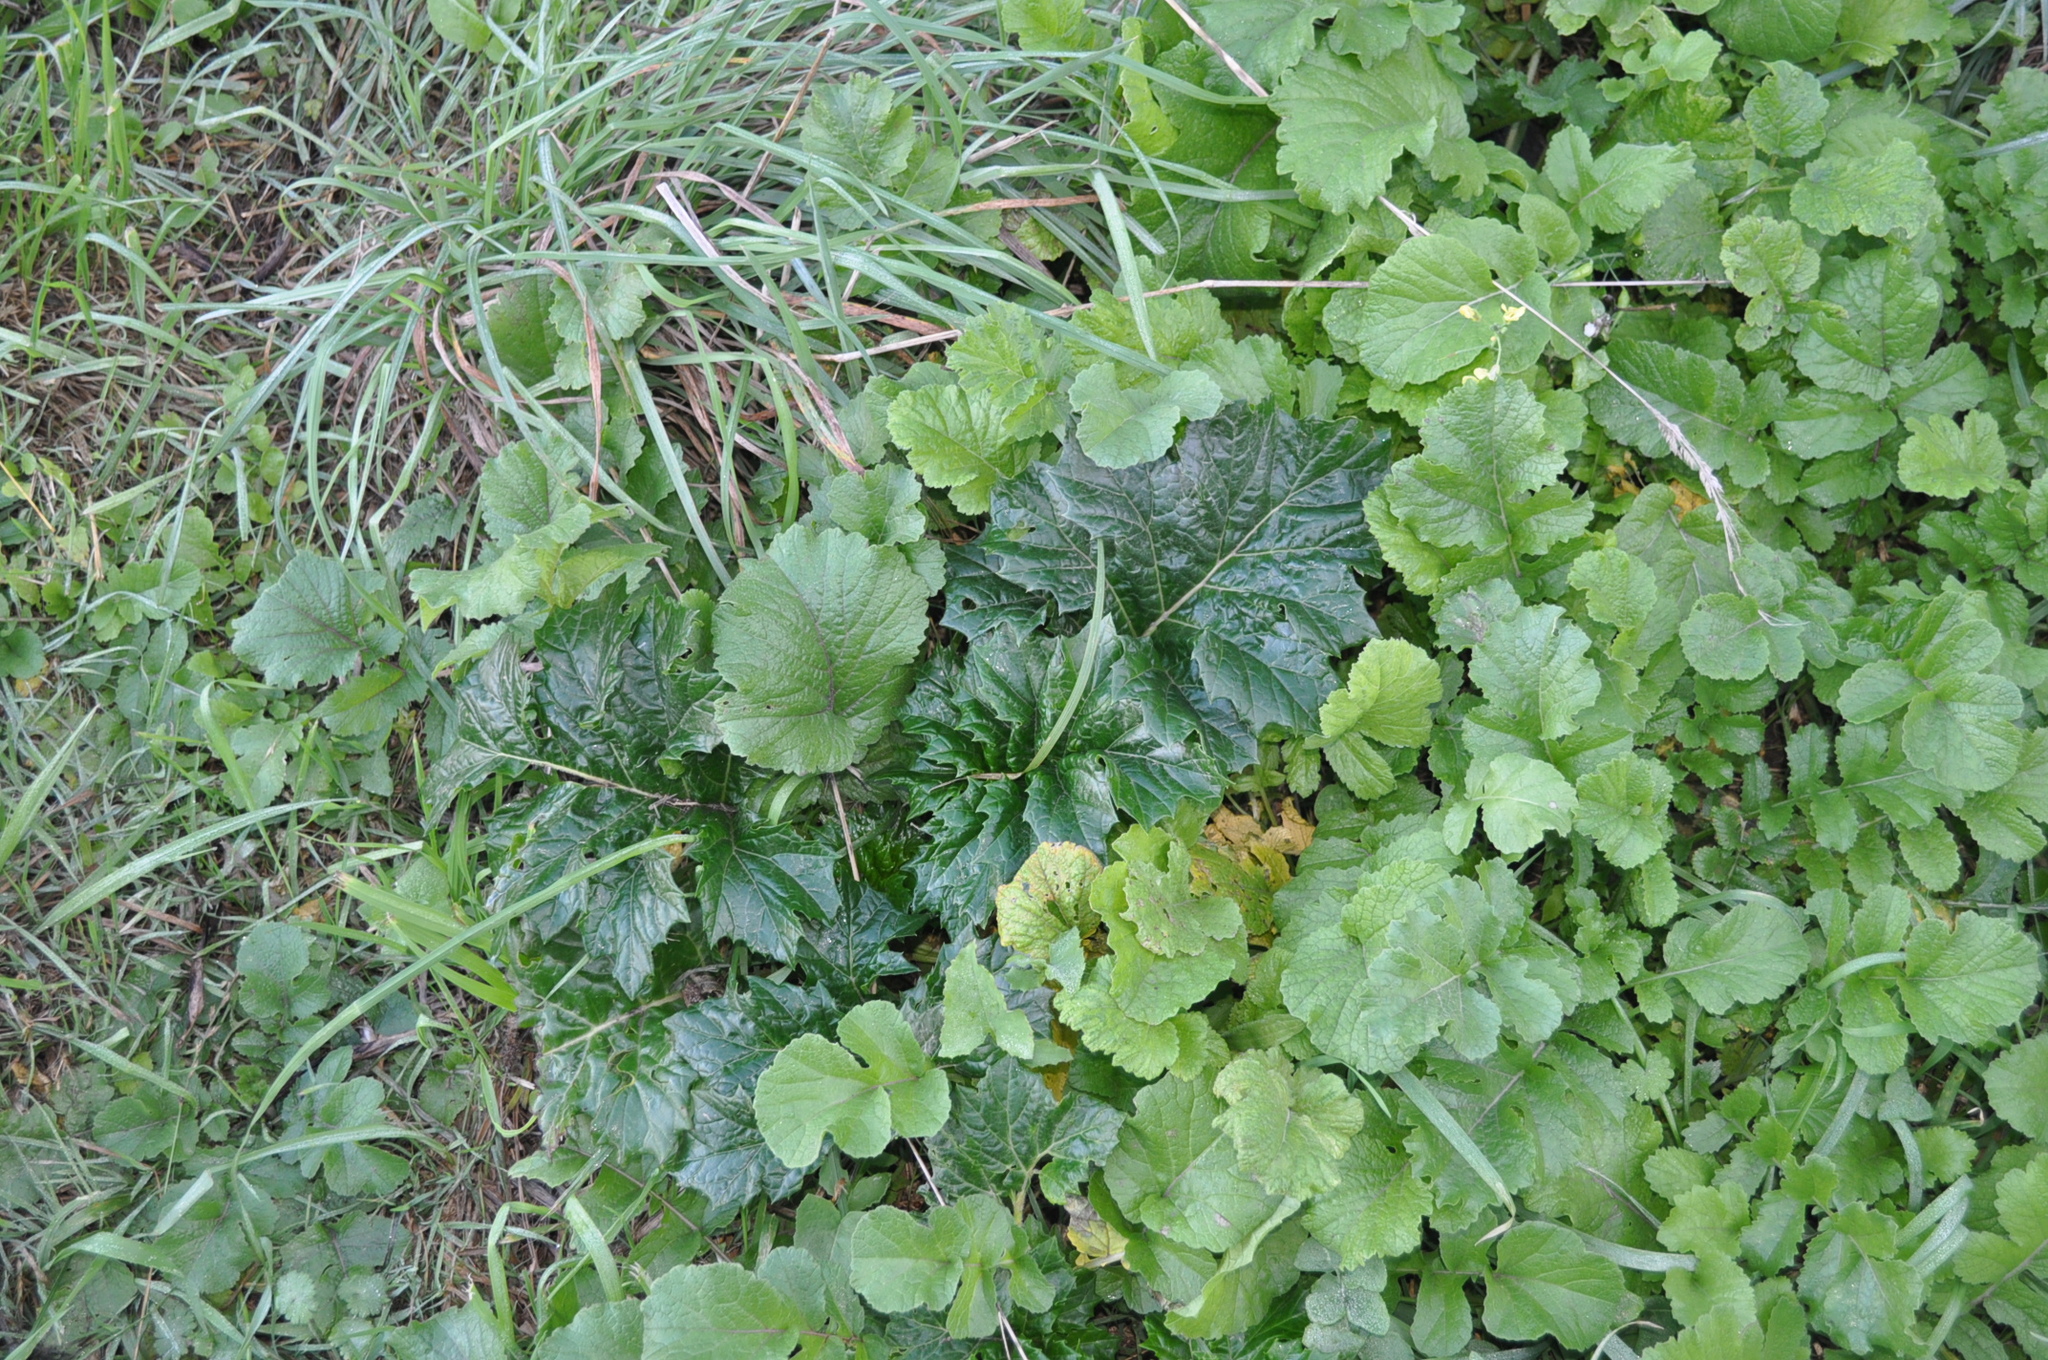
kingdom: Plantae
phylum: Tracheophyta
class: Magnoliopsida
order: Lamiales
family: Acanthaceae
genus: Acanthus
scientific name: Acanthus mollis
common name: Bear's-breech
